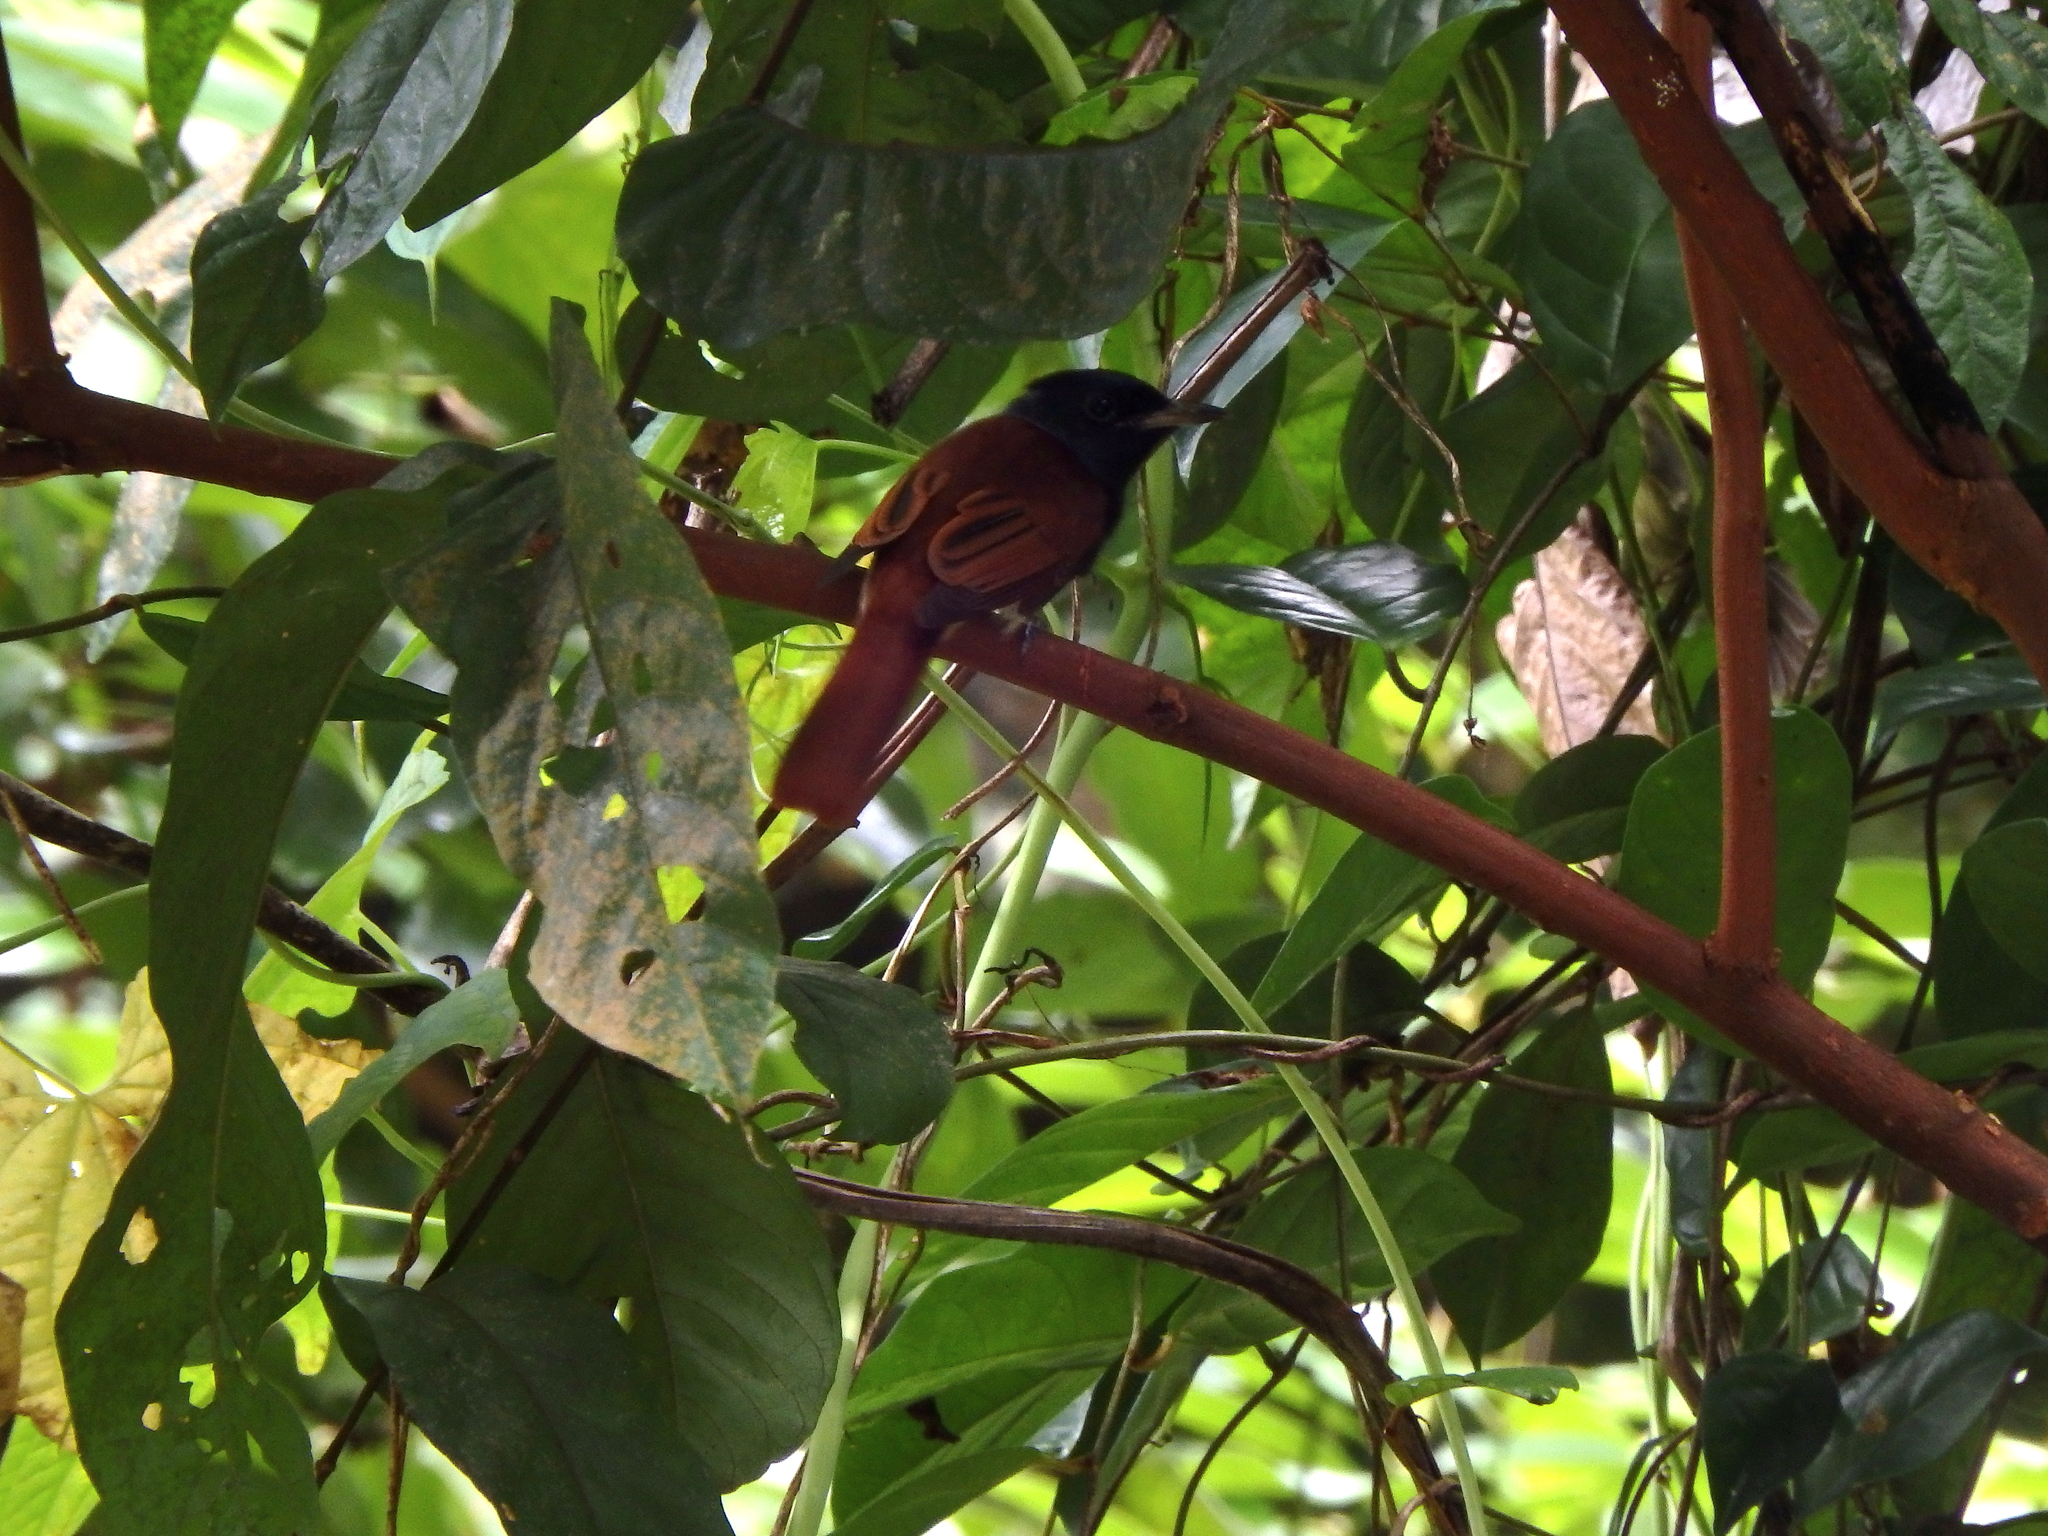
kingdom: Animalia
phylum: Chordata
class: Aves
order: Passeriformes
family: Monarchidae
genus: Terpsiphone
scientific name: Terpsiphone paradisi
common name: Indian paradise flycatcher
